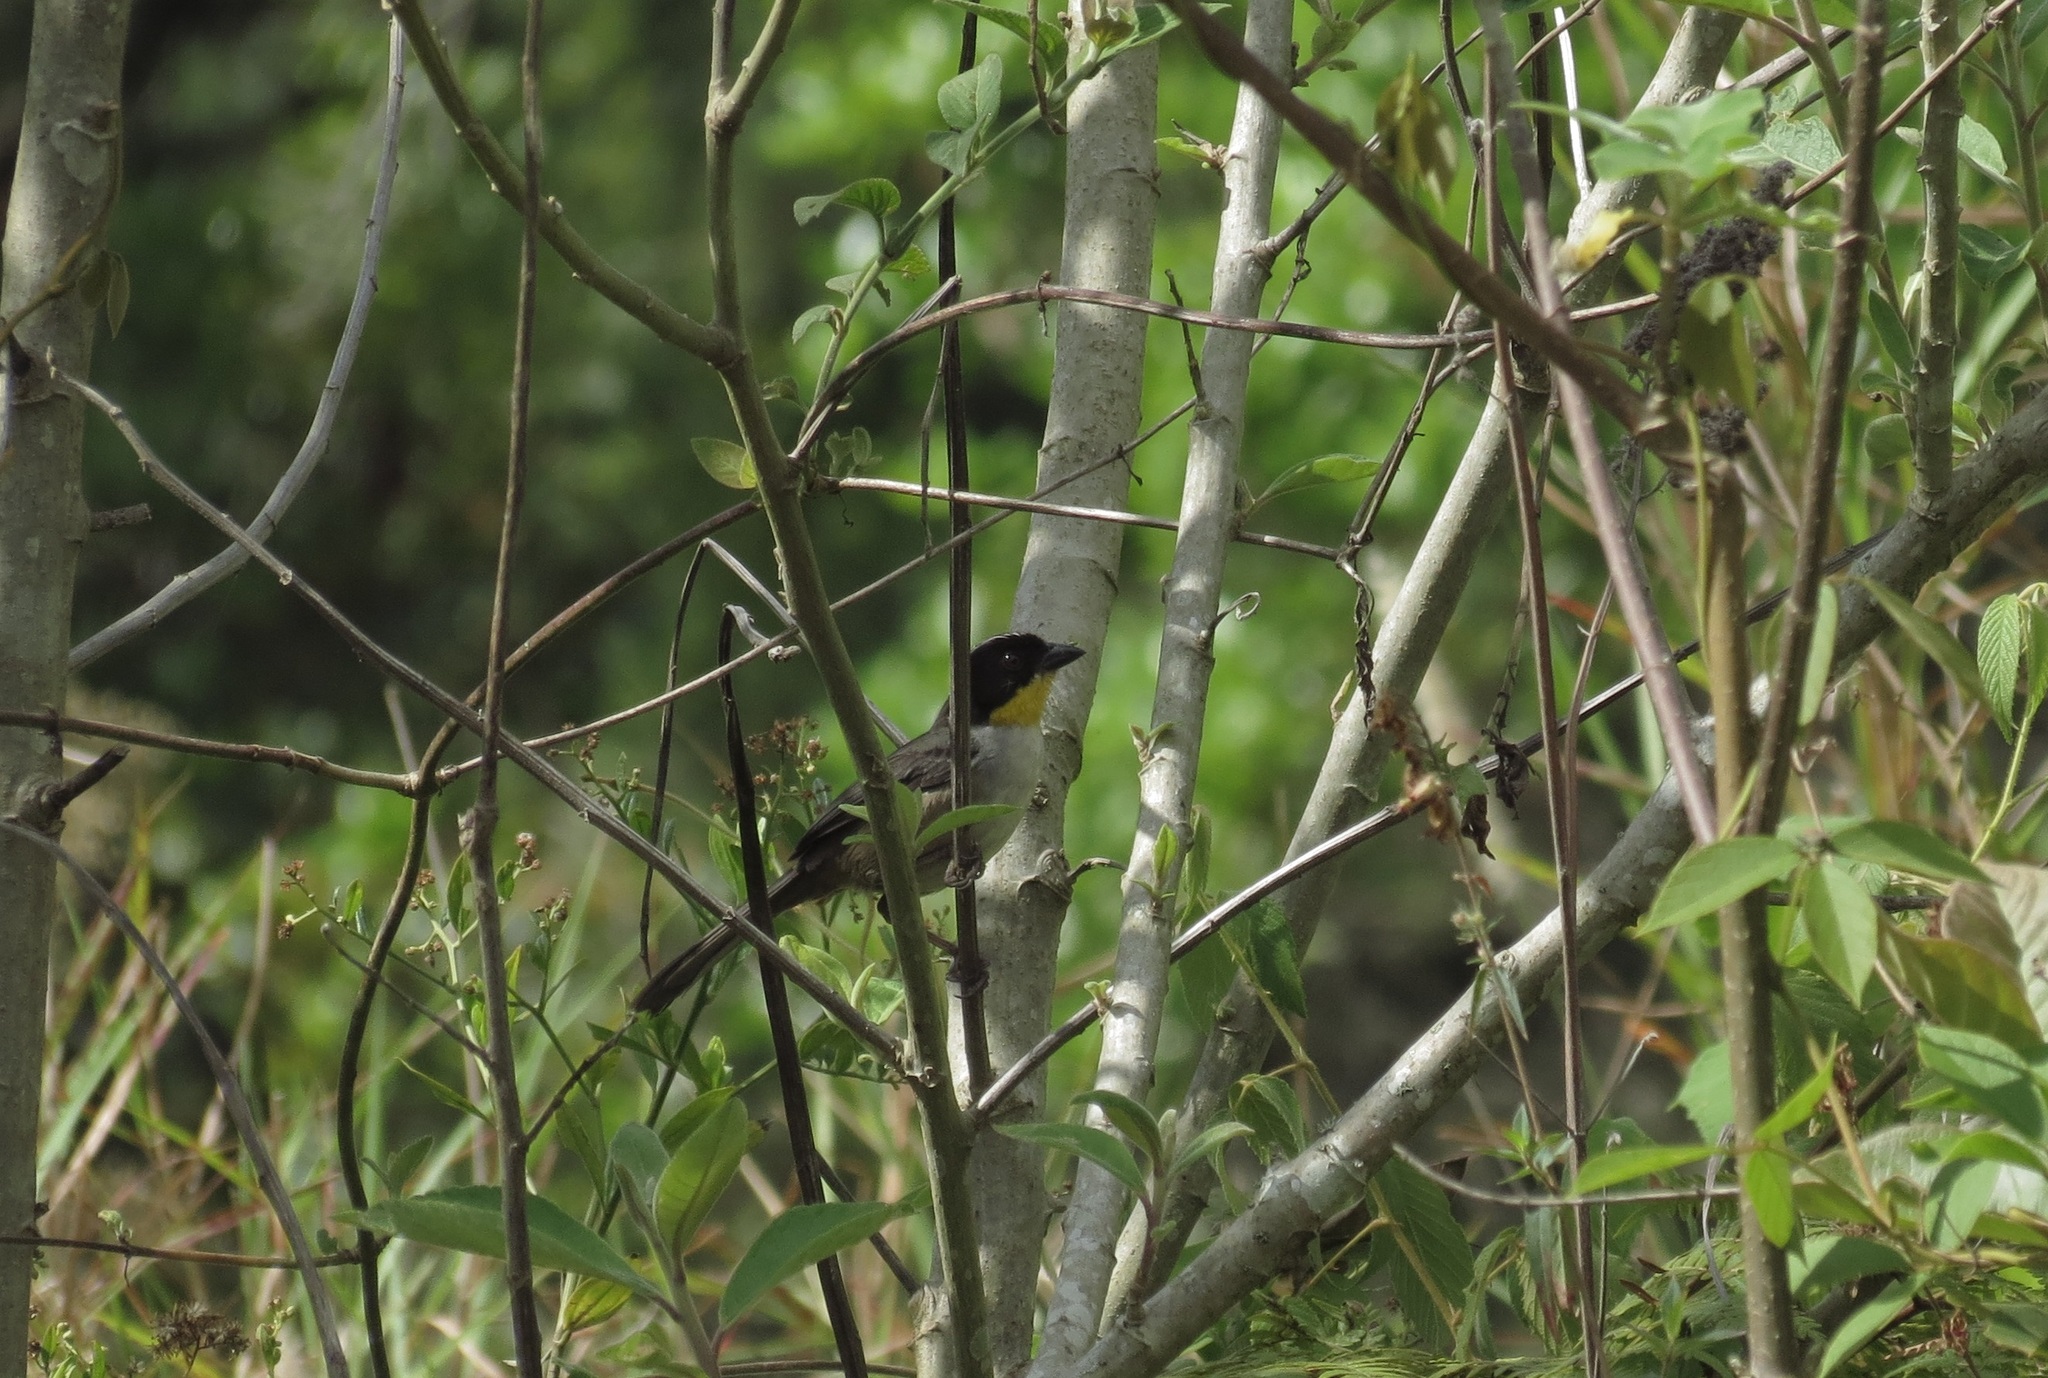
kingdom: Animalia
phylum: Chordata
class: Aves
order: Passeriformes
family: Passerellidae
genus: Atlapetes
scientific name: Atlapetes albinucha
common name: White-naped brush-finch
